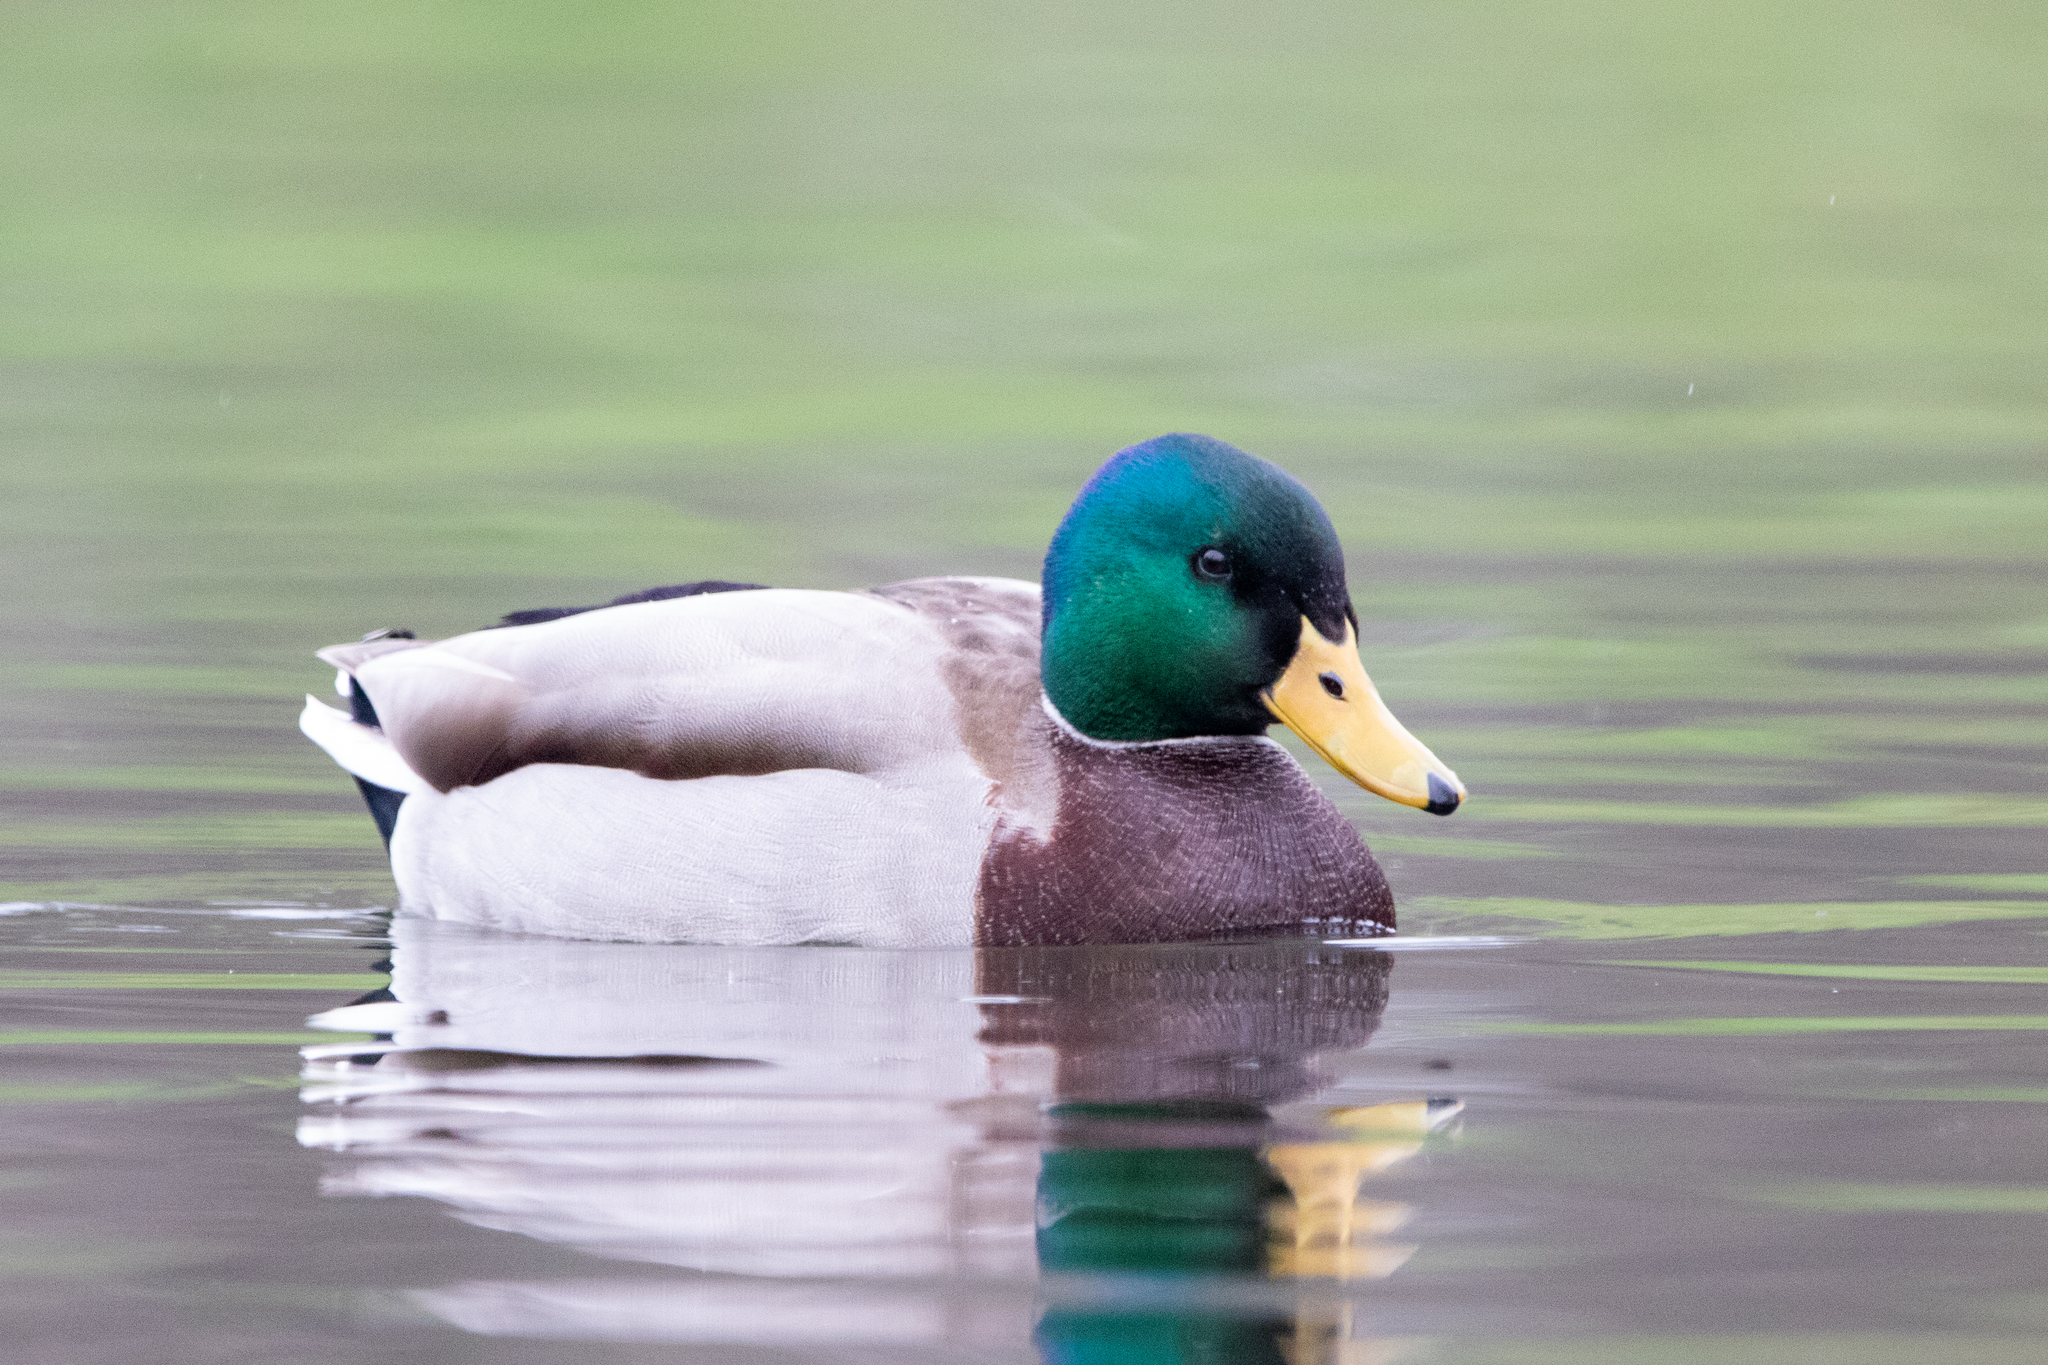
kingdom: Animalia
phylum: Chordata
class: Aves
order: Anseriformes
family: Anatidae
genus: Anas
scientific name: Anas platyrhynchos
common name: Mallard
